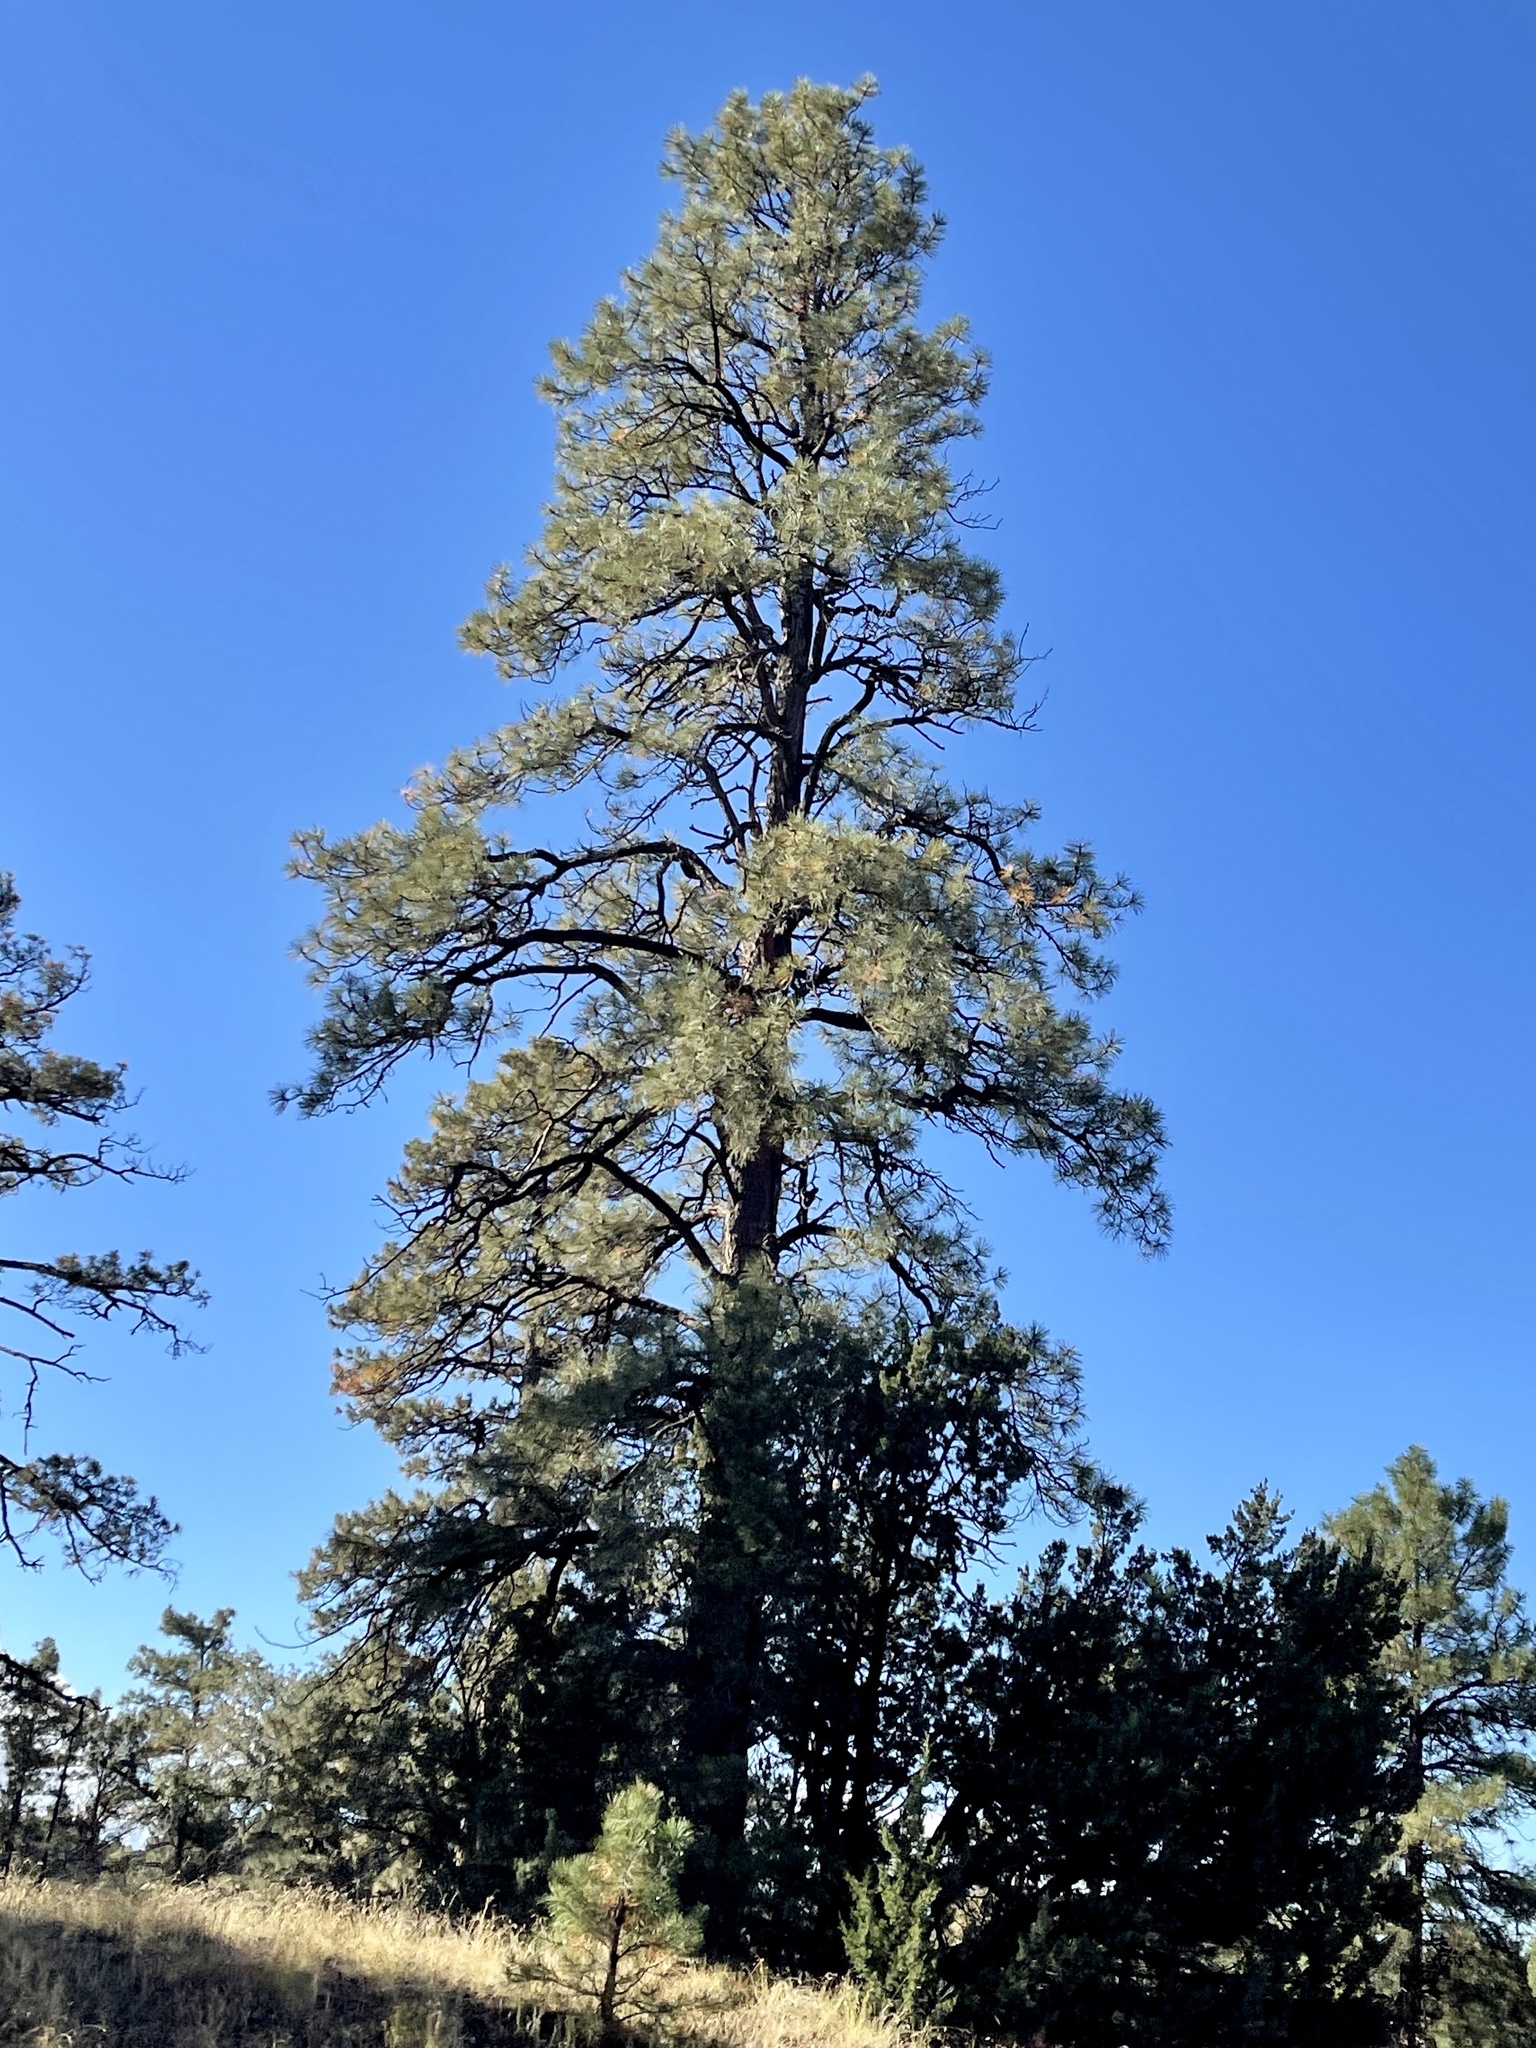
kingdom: Plantae
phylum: Tracheophyta
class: Pinopsida
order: Pinales
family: Pinaceae
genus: Pinus
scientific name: Pinus ponderosa
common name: Western yellow-pine
